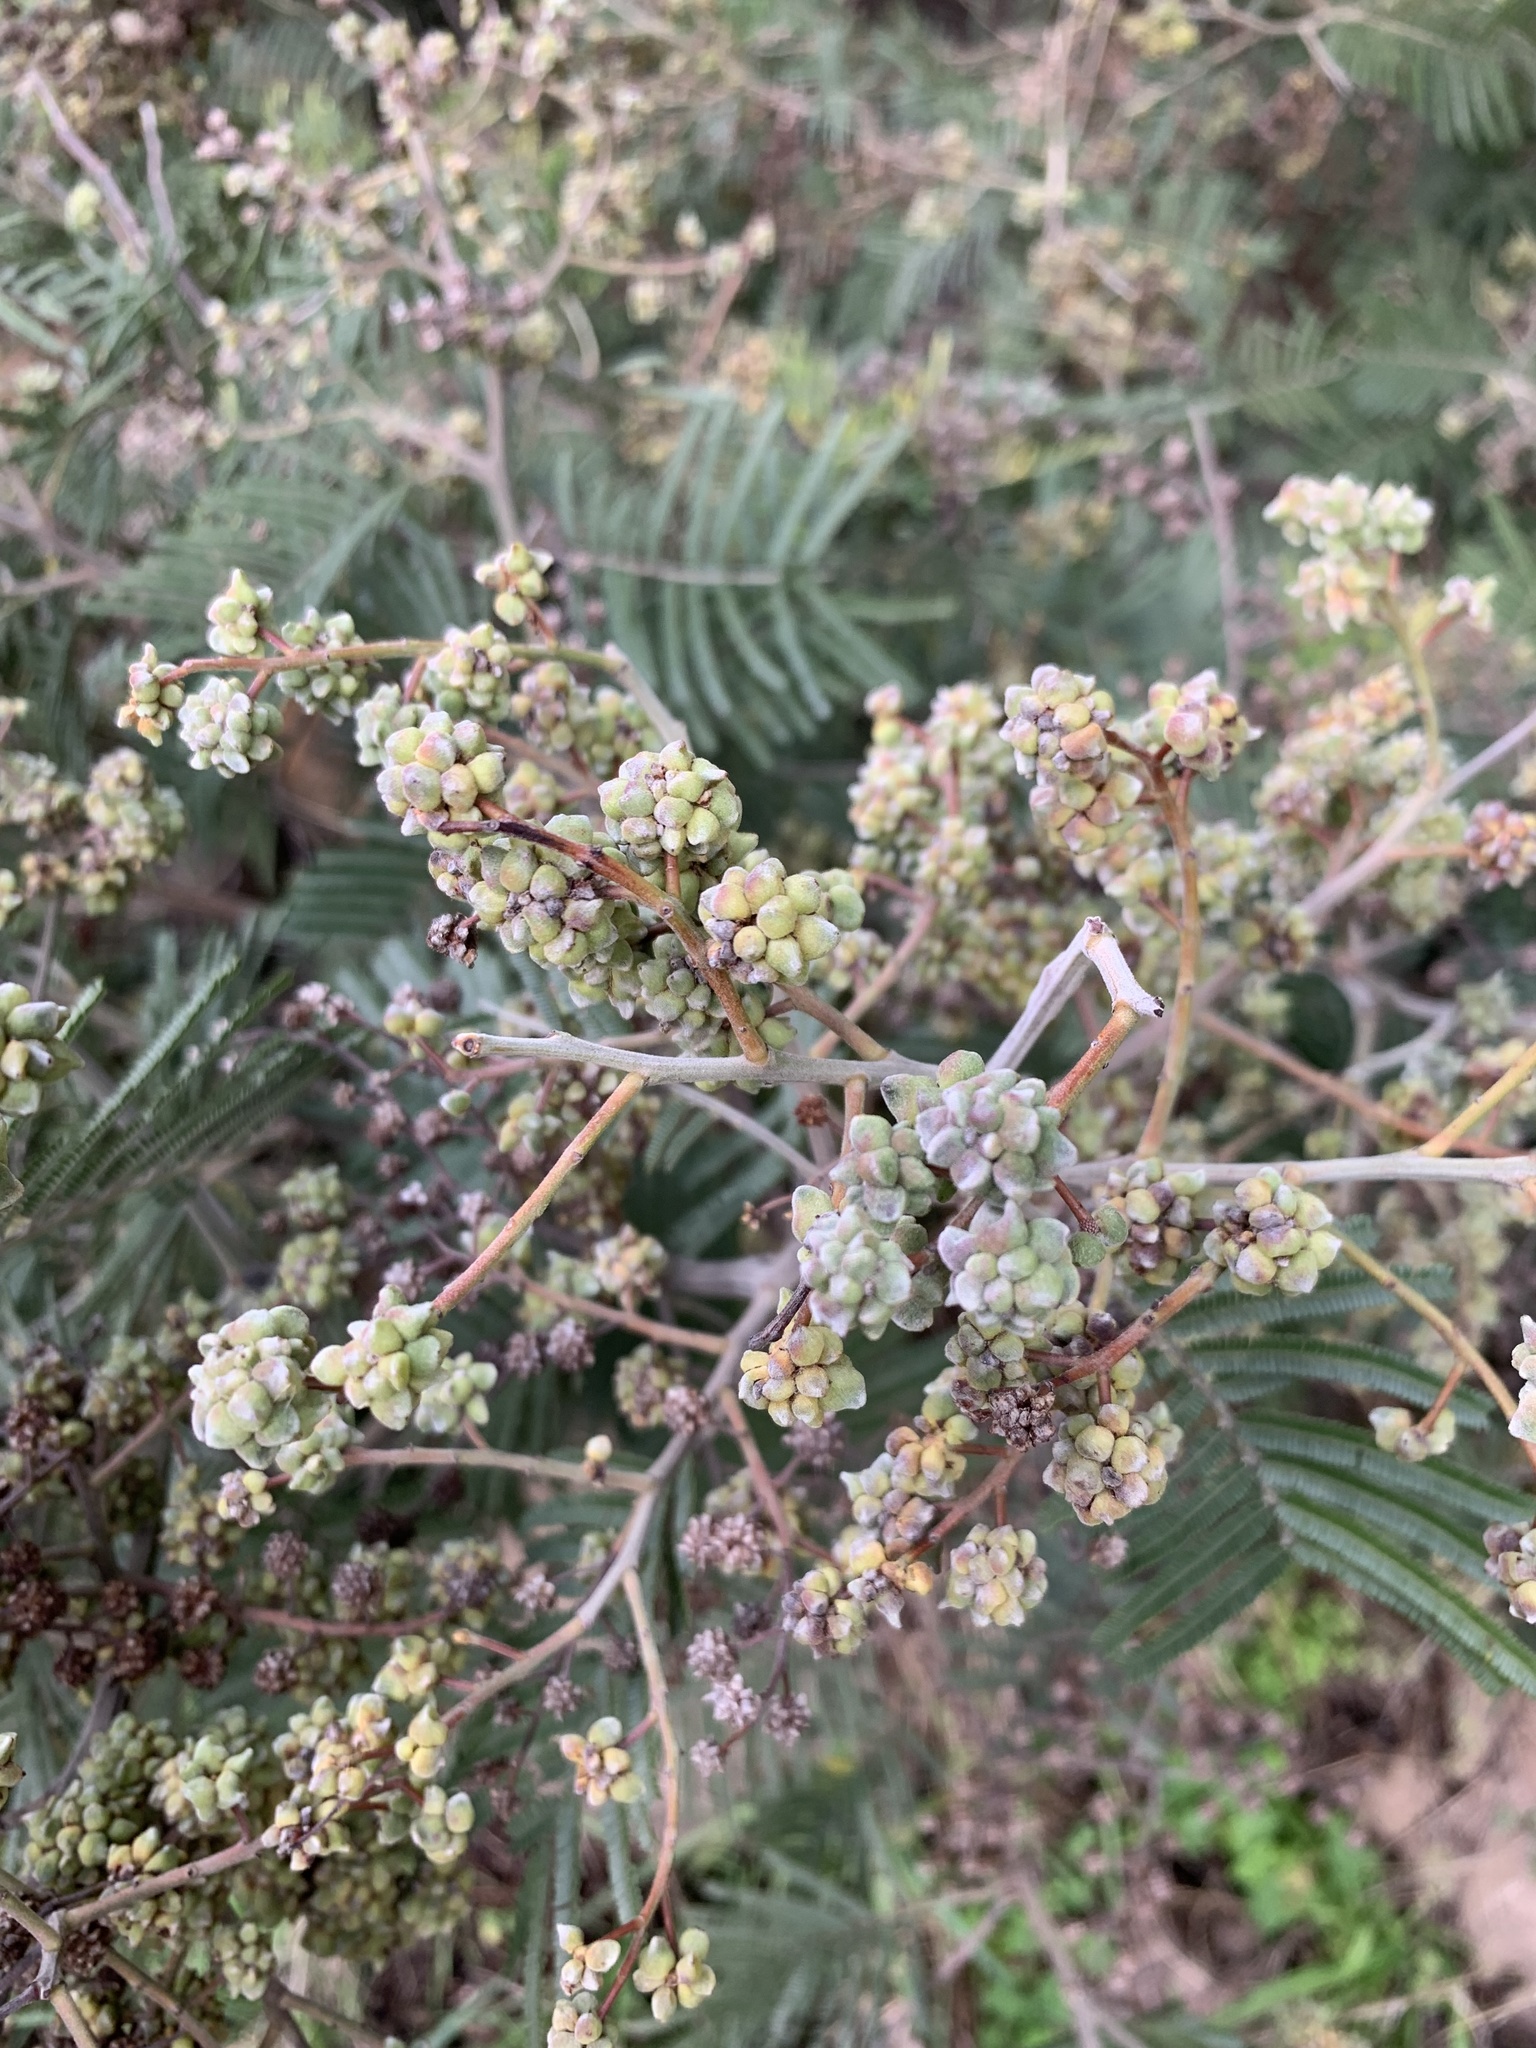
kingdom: Animalia
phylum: Arthropoda
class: Insecta
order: Diptera
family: Cecidomyiidae
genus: Dasineura
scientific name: Dasineura rubiformis
